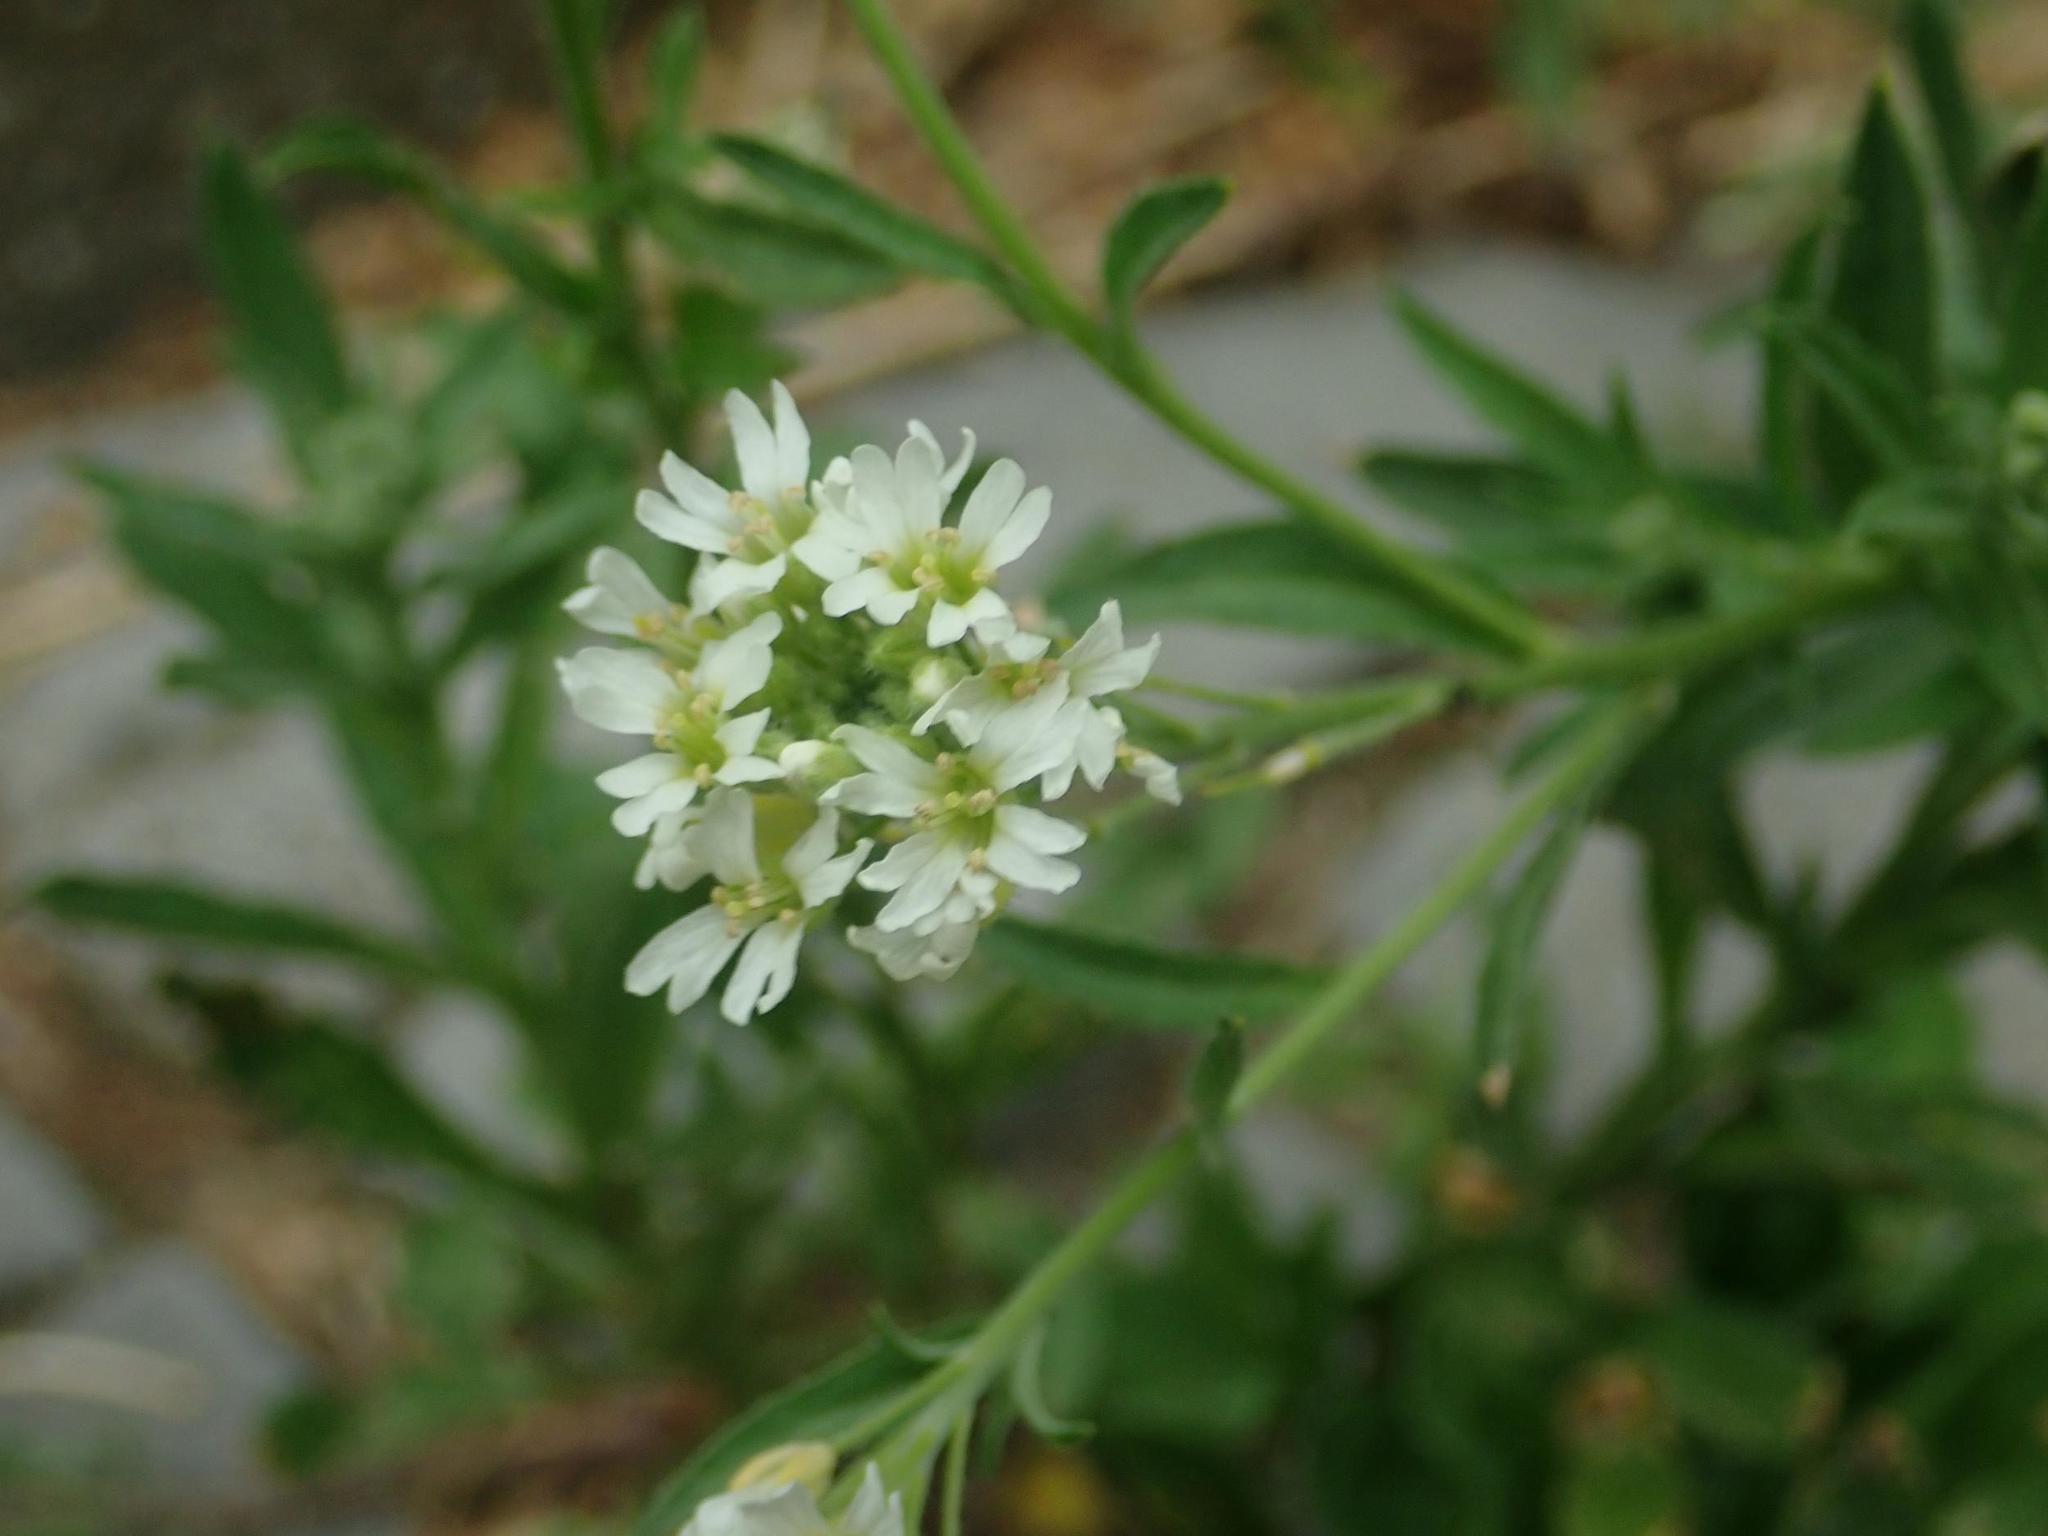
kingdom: Plantae
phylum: Tracheophyta
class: Magnoliopsida
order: Brassicales
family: Brassicaceae
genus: Berteroa
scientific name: Berteroa incana
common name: Hoary alison
